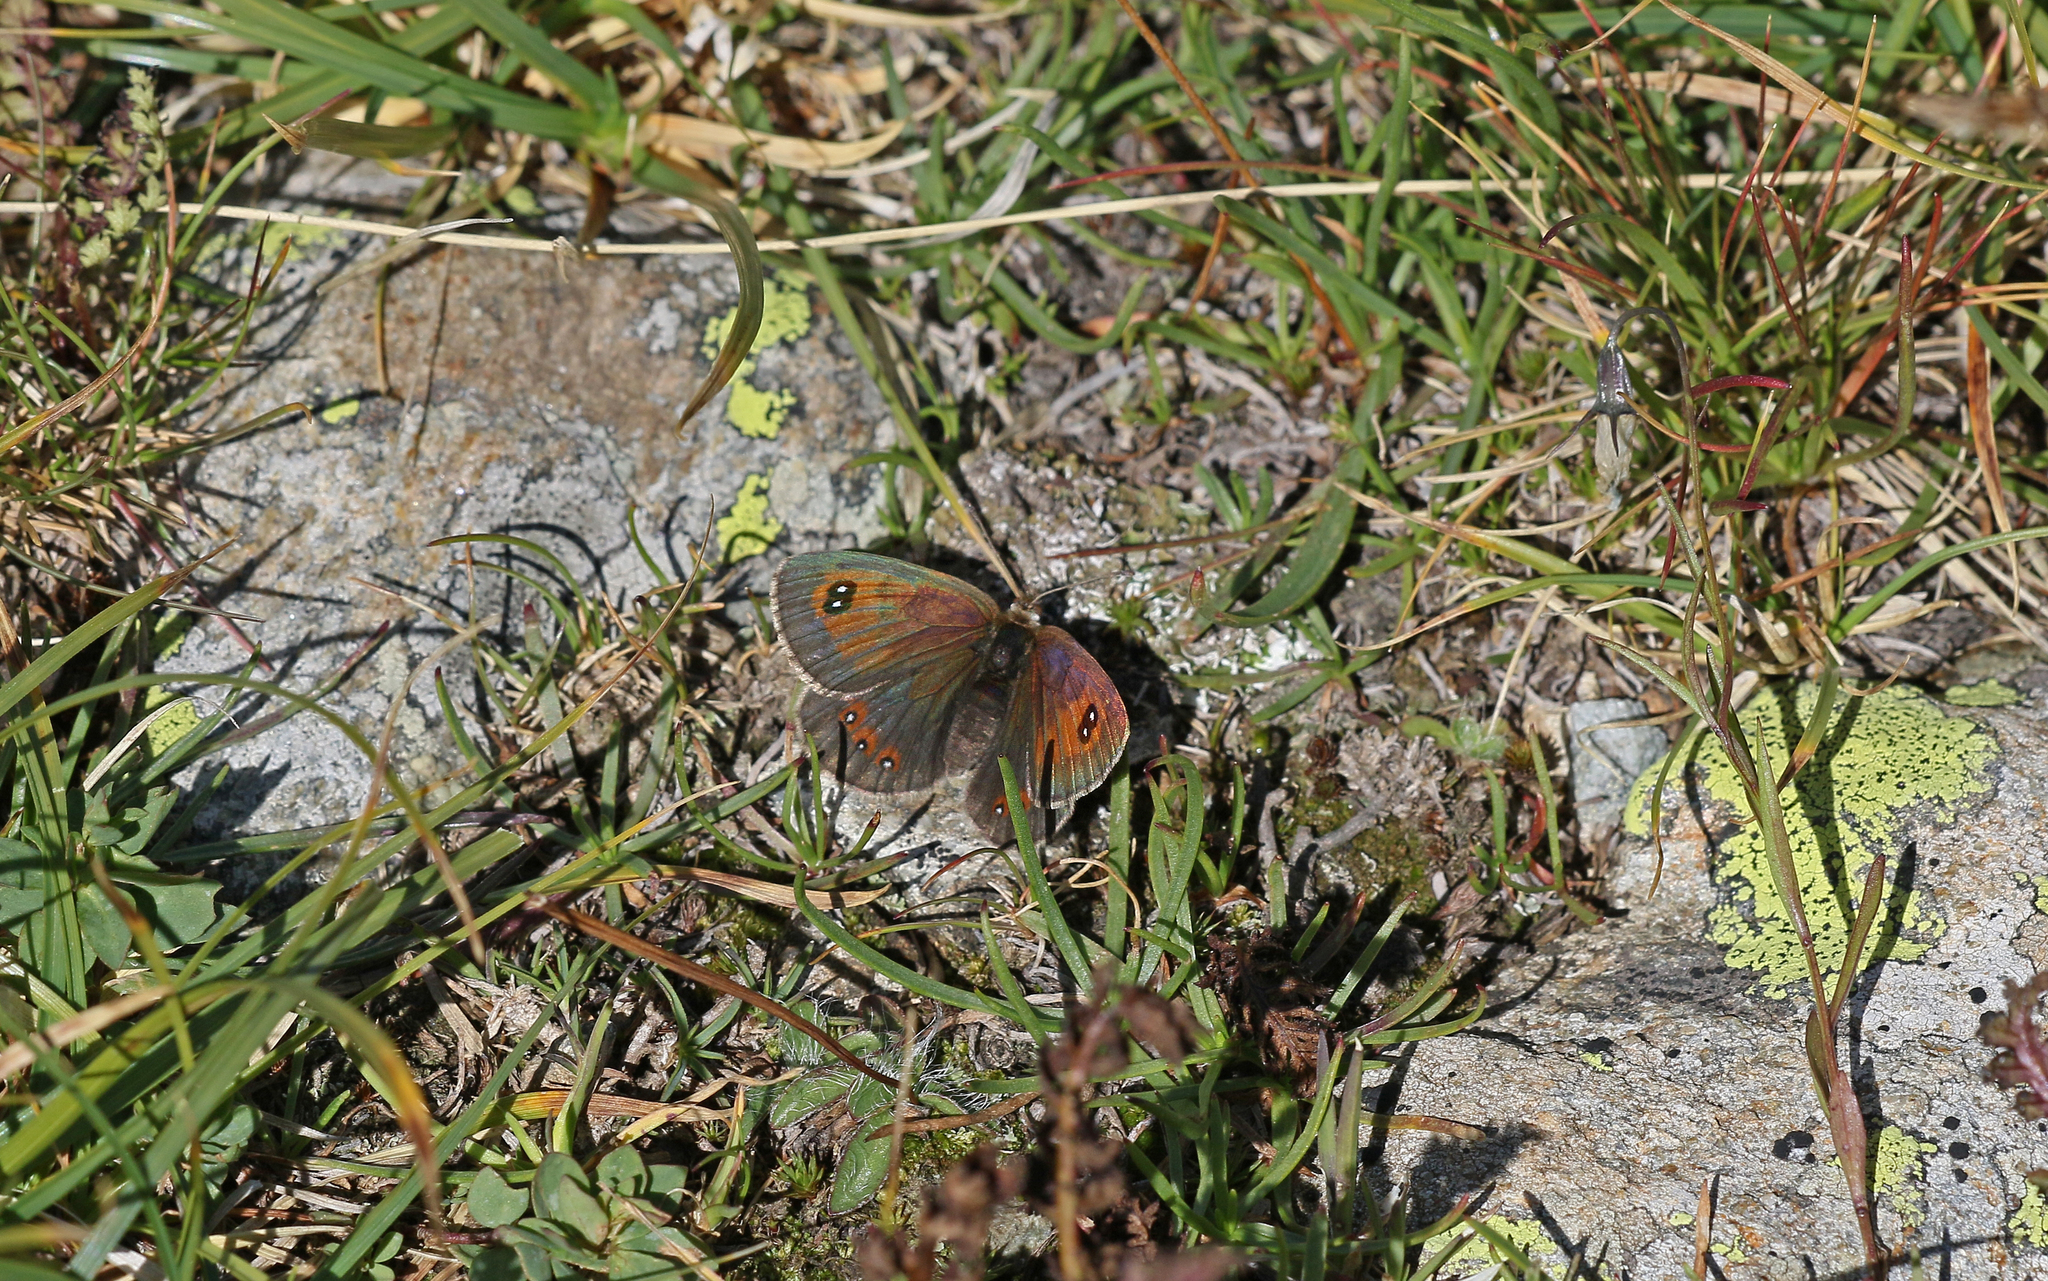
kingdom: Animalia
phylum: Arthropoda
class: Insecta
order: Lepidoptera
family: Nymphalidae
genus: Erebia
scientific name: Erebia cassioides
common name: Common brassy ringlet
